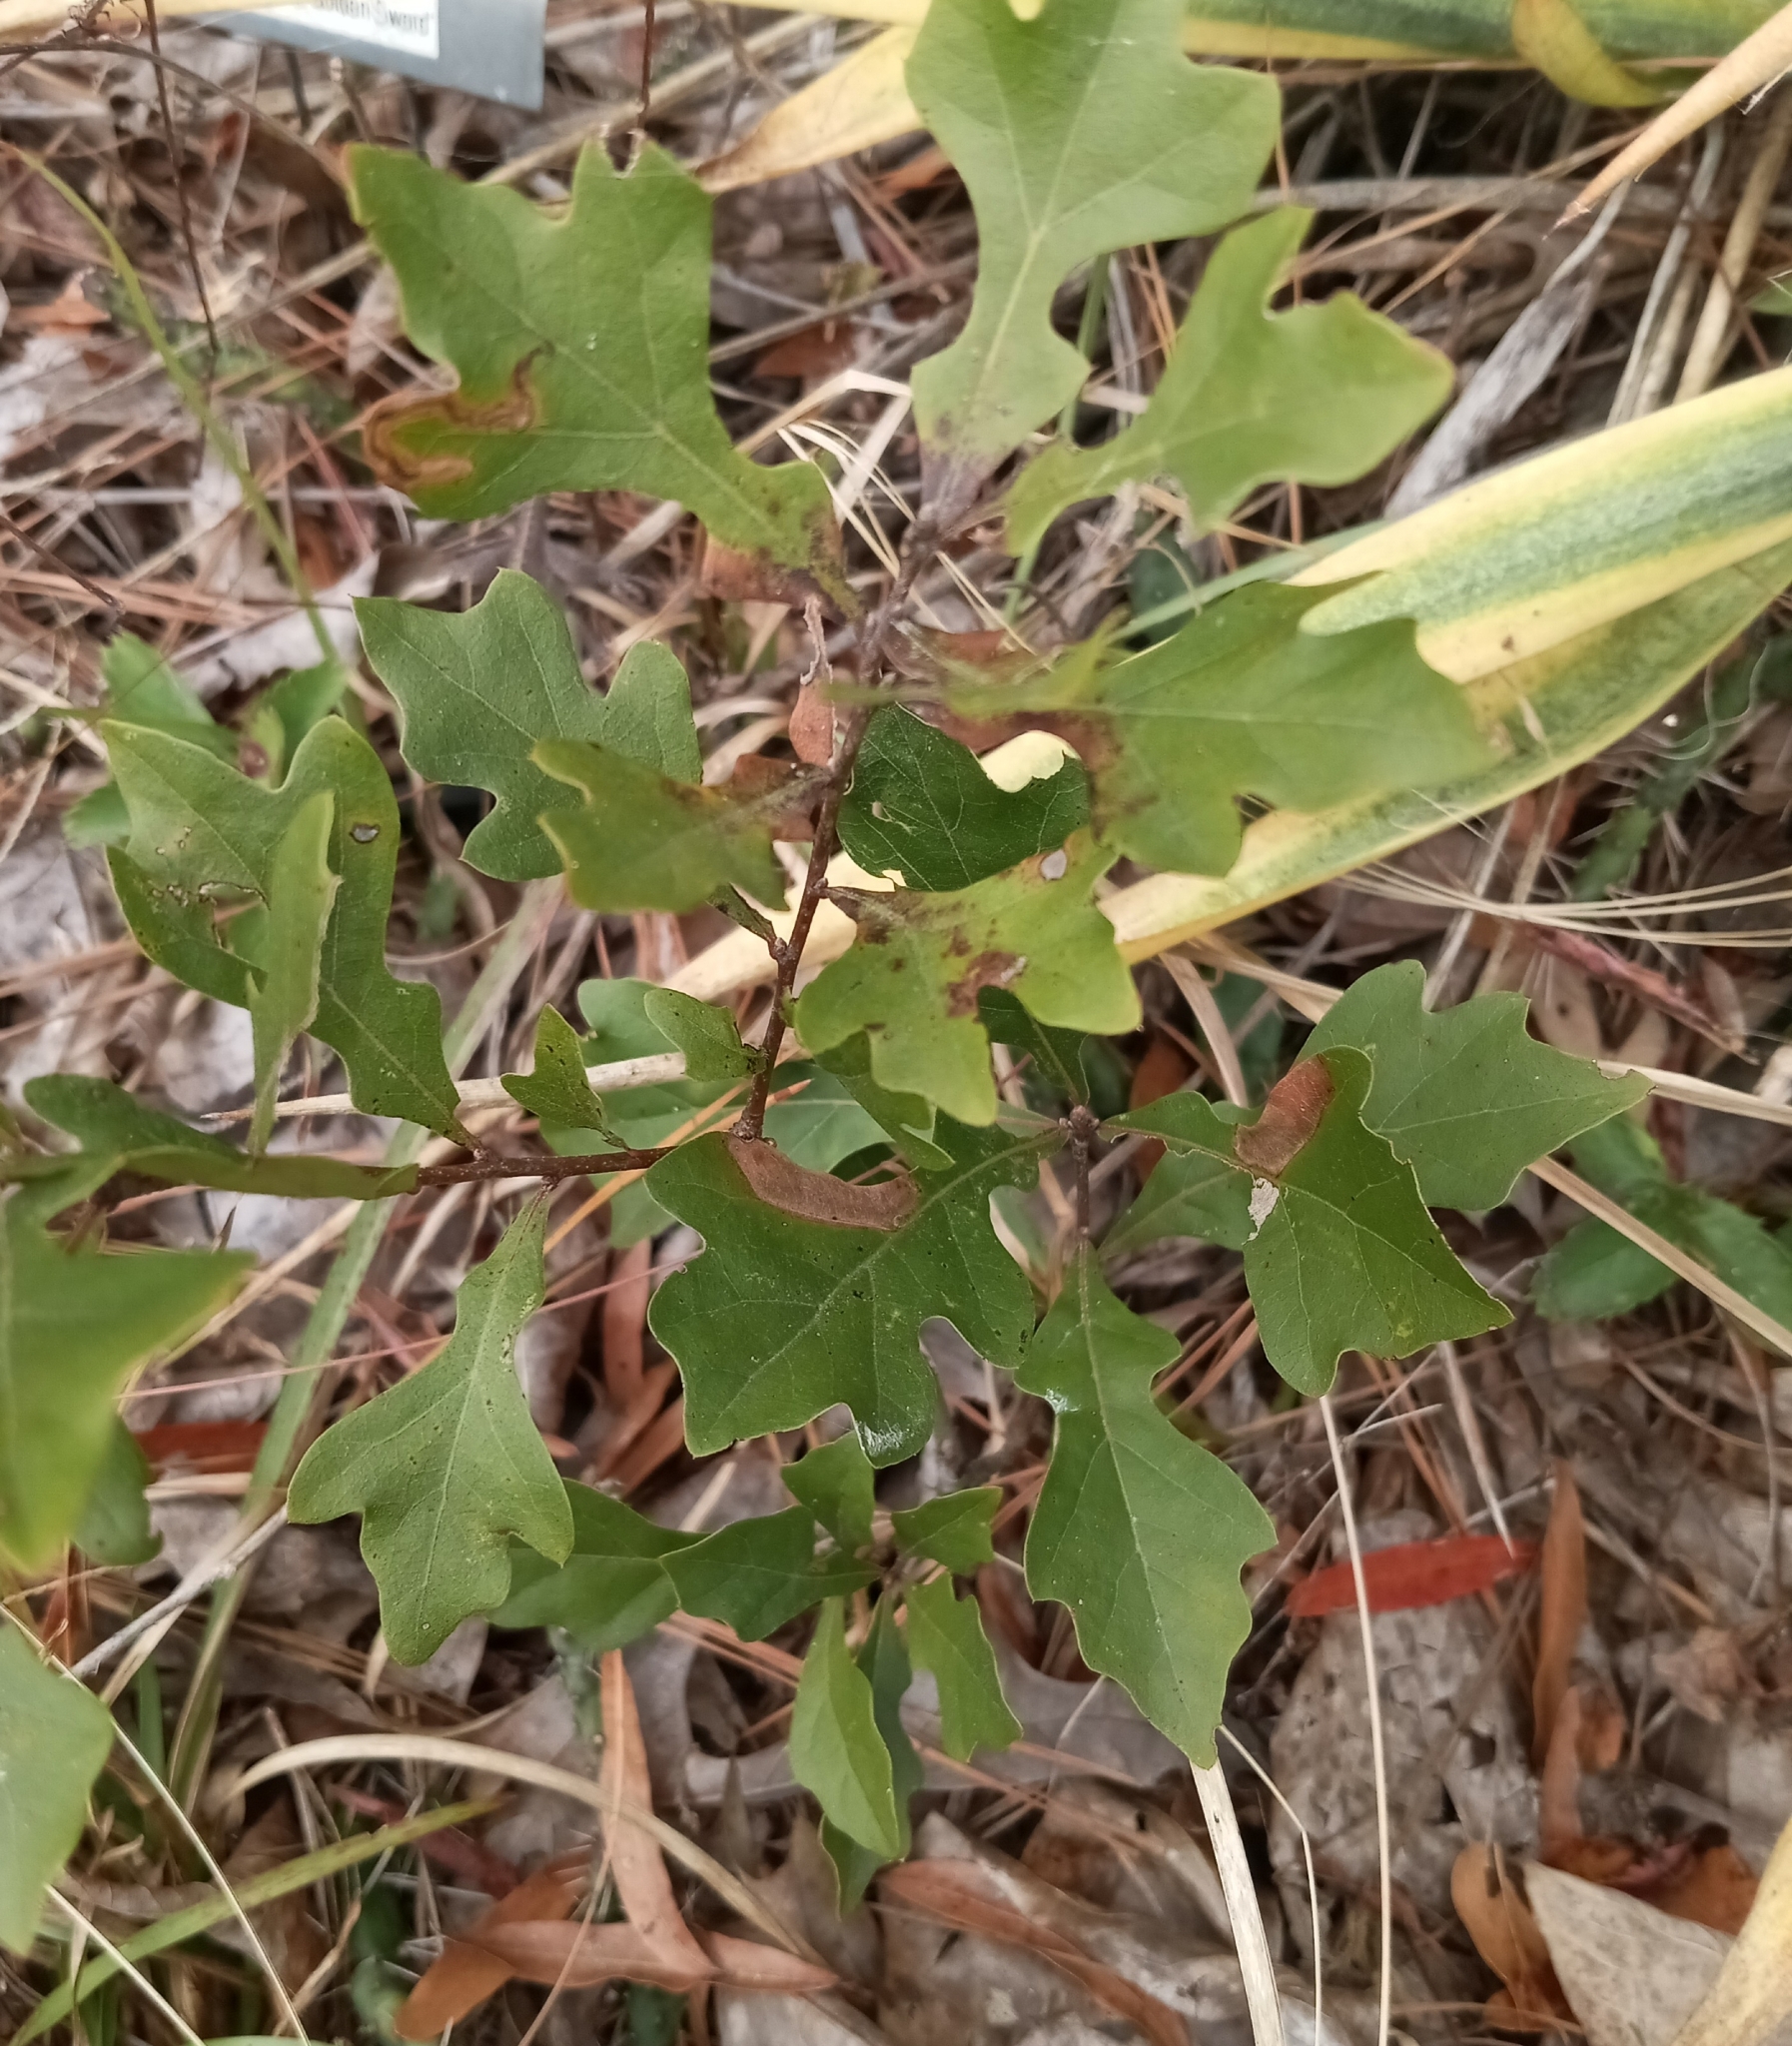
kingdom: Plantae
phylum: Tracheophyta
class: Magnoliopsida
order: Fagales
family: Fagaceae
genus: Quercus
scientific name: Quercus nigra
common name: Water oak
